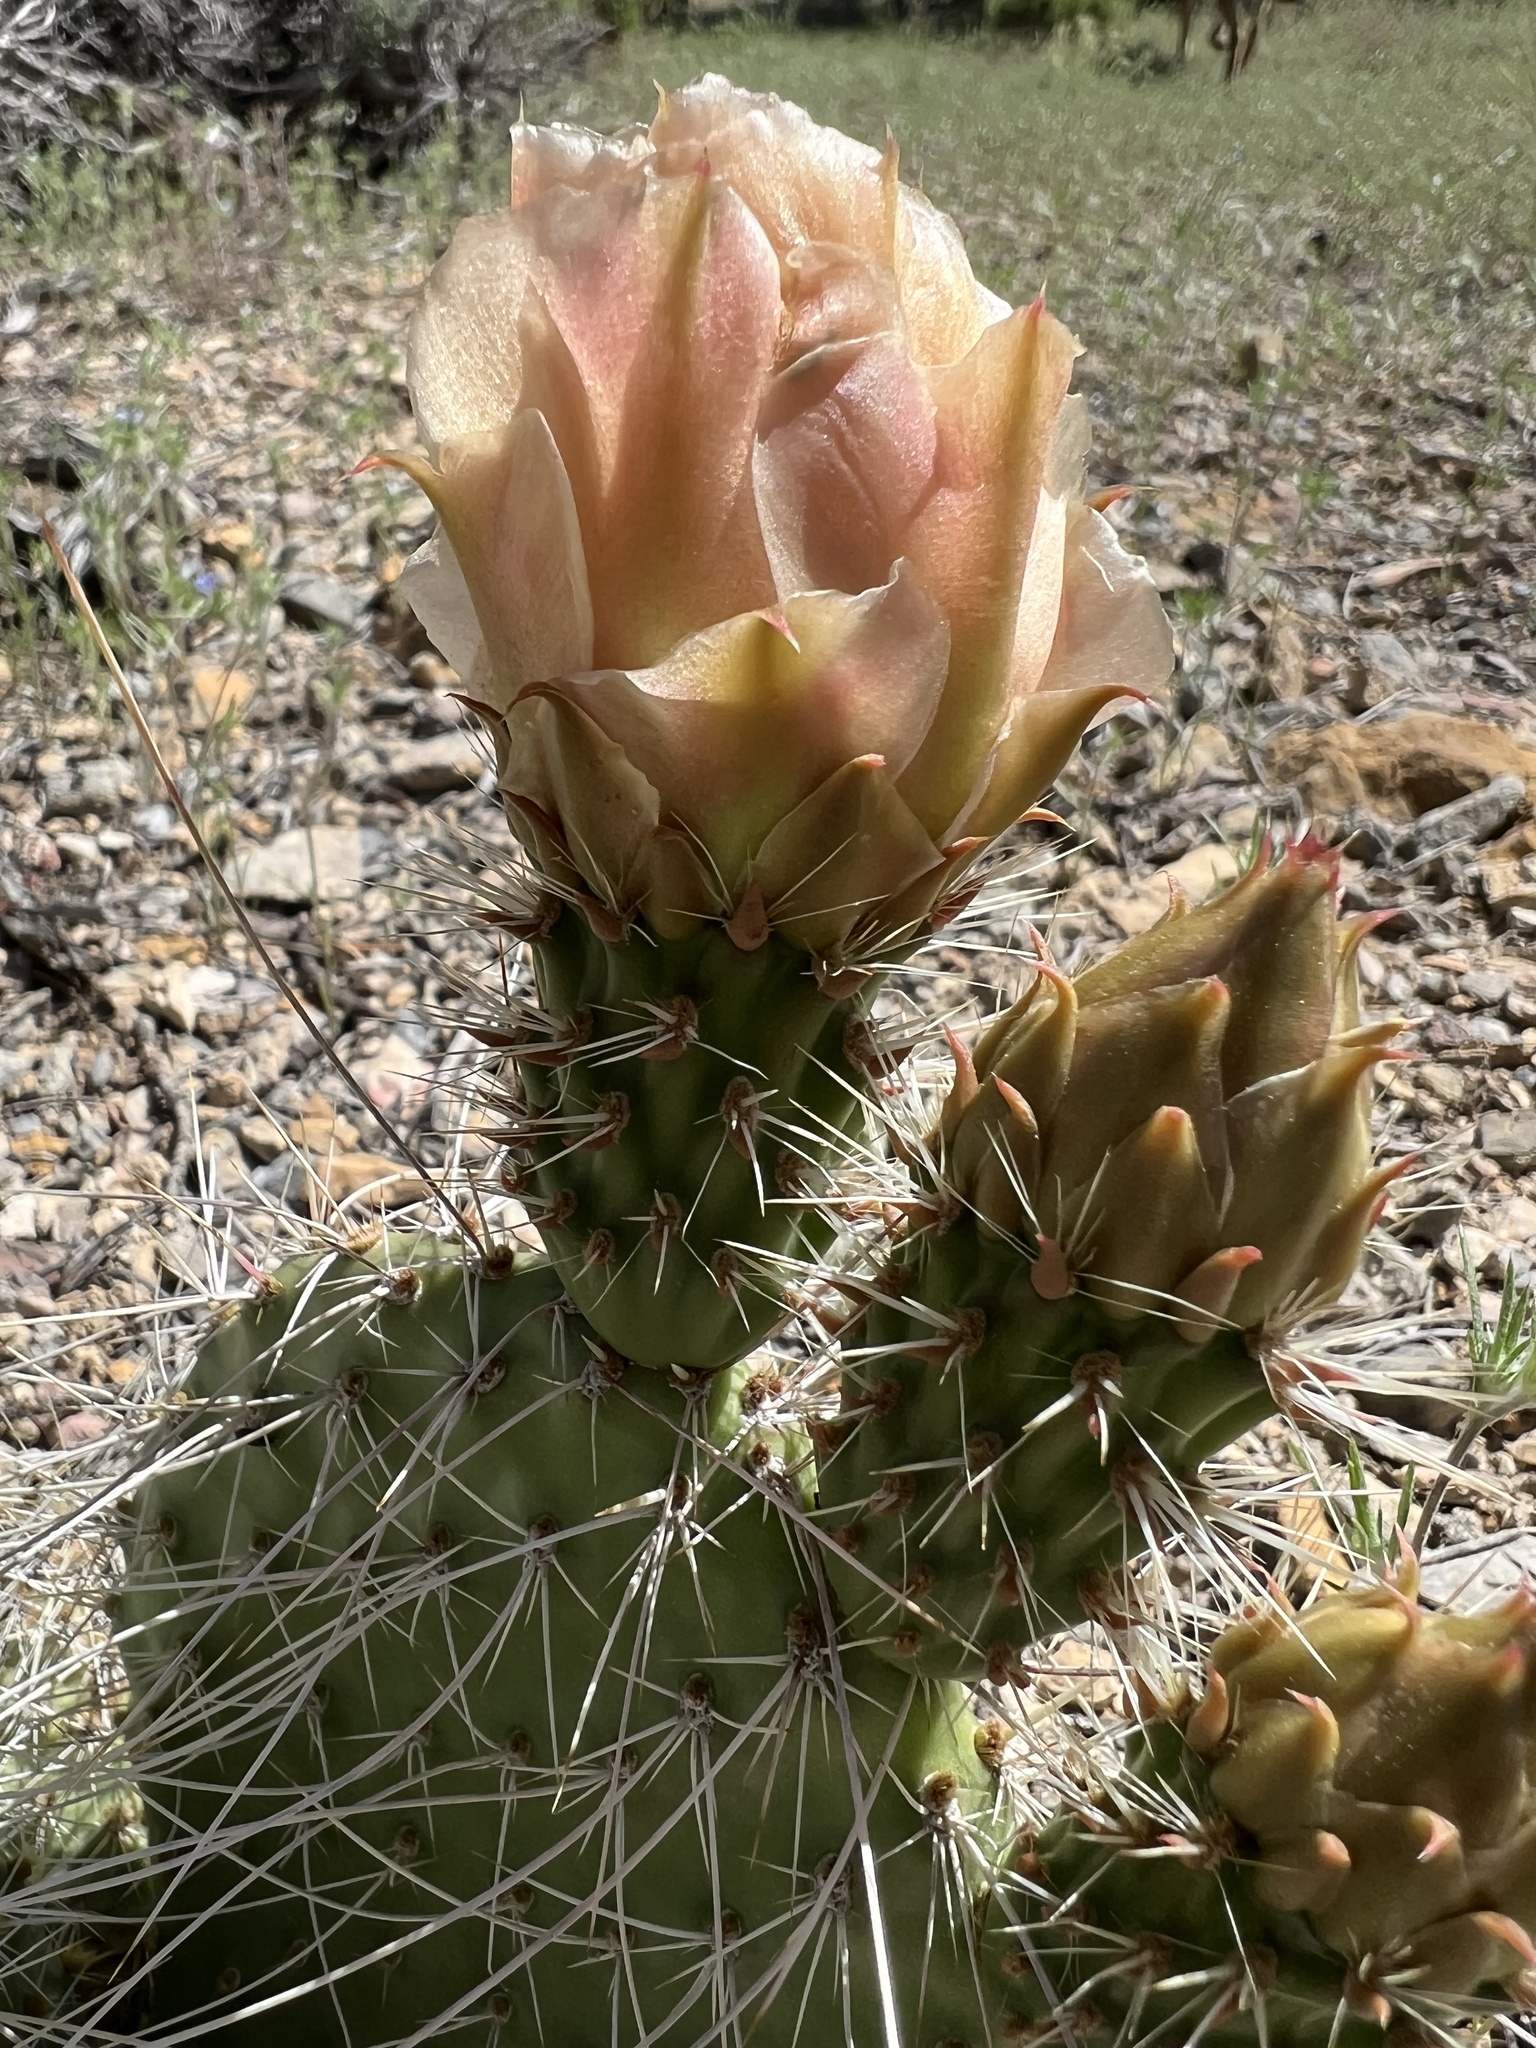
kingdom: Plantae
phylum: Tracheophyta
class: Magnoliopsida
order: Caryophyllales
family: Cactaceae
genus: Opuntia
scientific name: Opuntia polyacantha
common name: Plains prickly-pear
